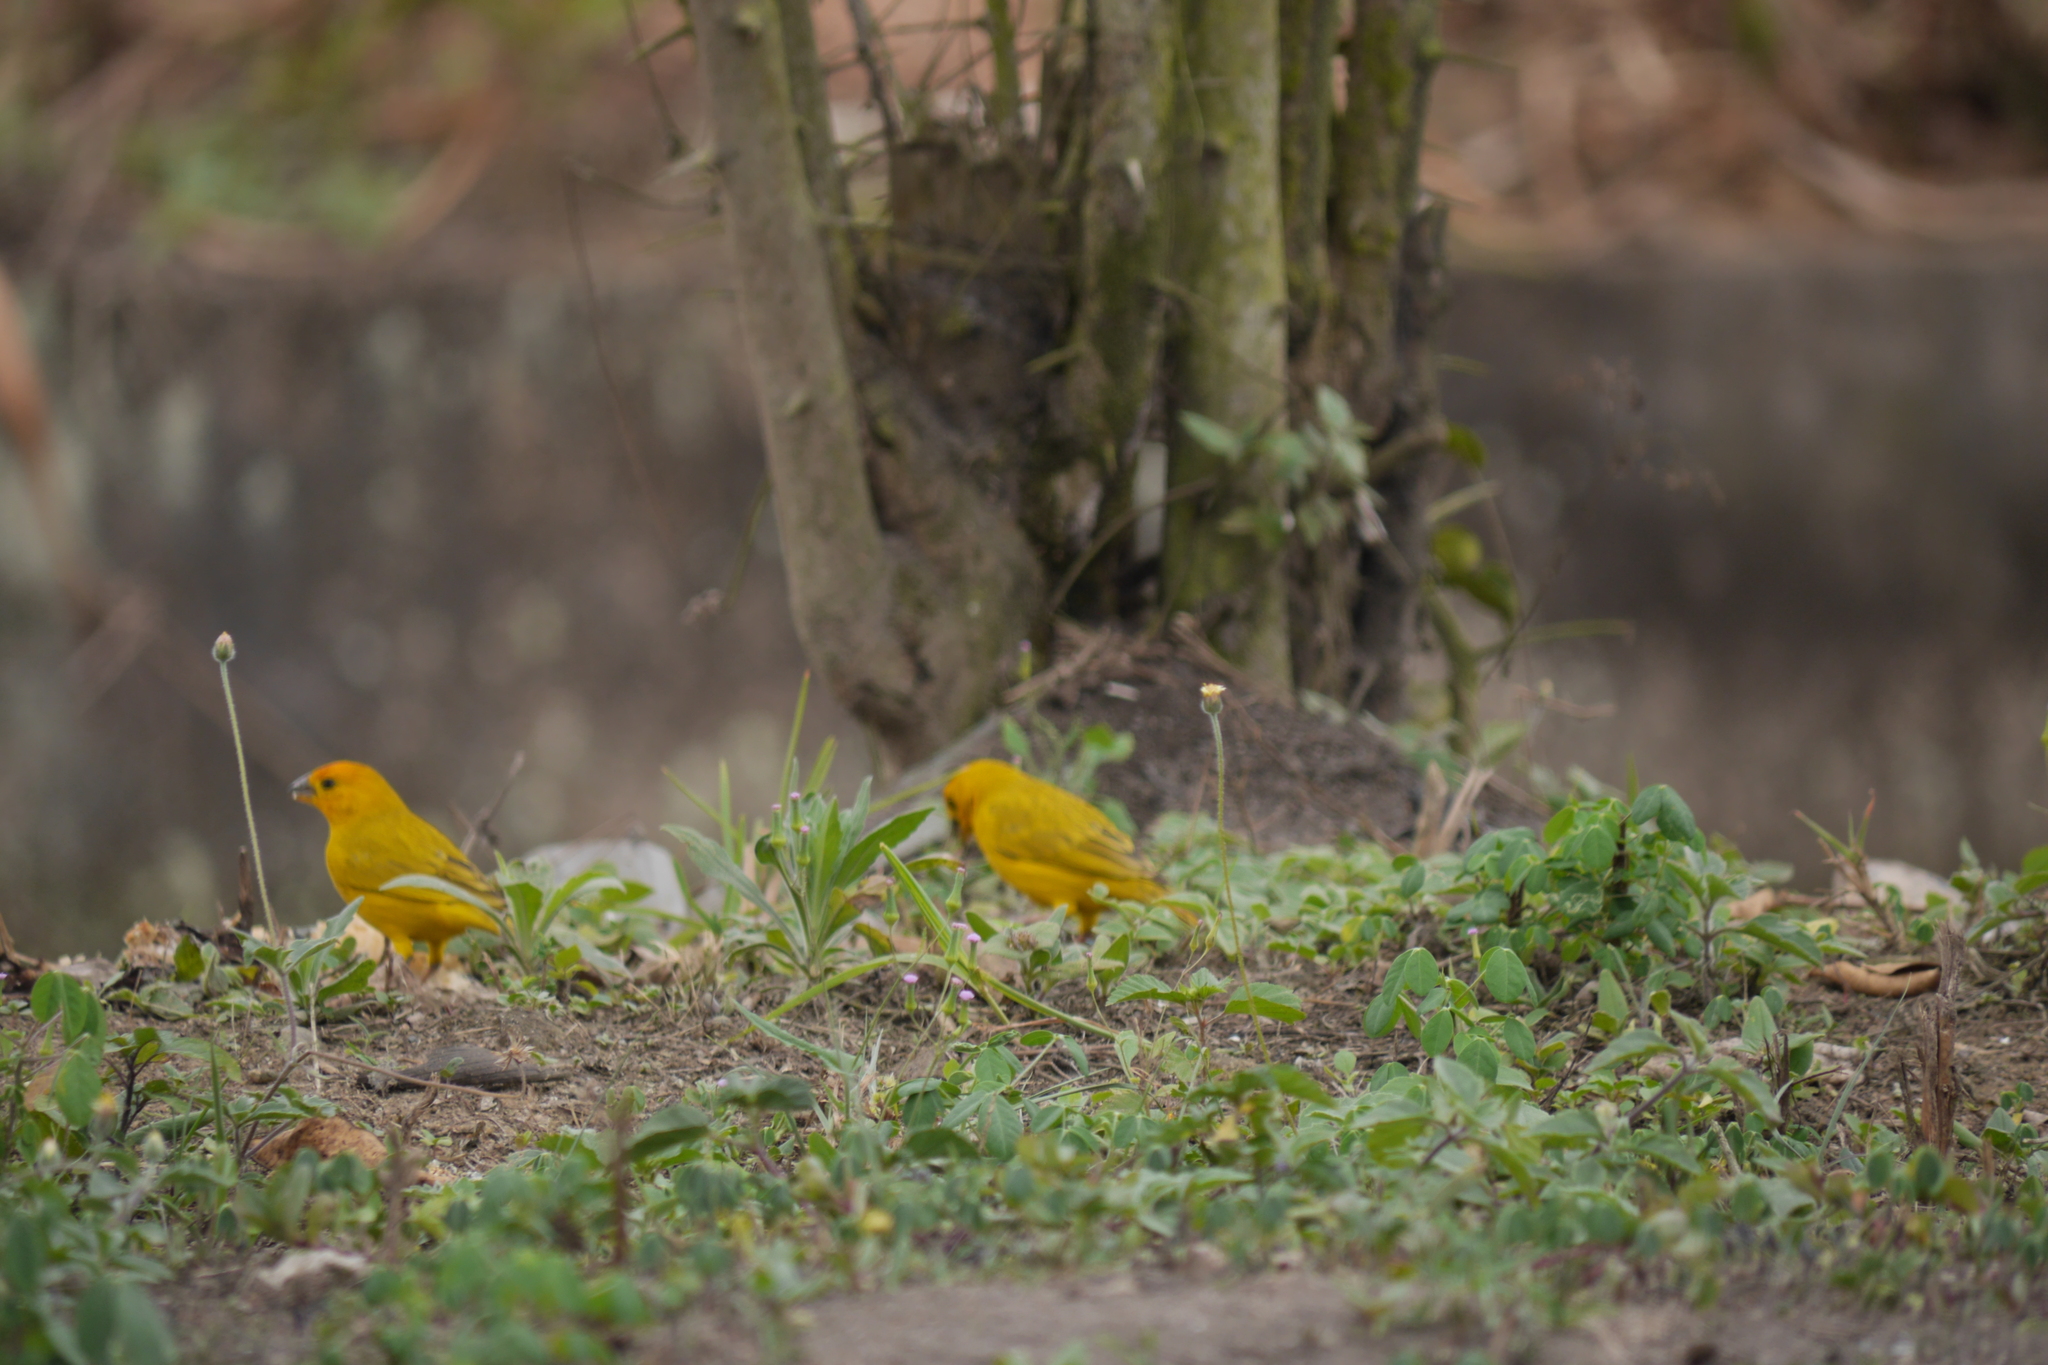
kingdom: Animalia
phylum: Chordata
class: Aves
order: Passeriformes
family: Thraupidae
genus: Sicalis
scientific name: Sicalis flaveola
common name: Saffron finch
